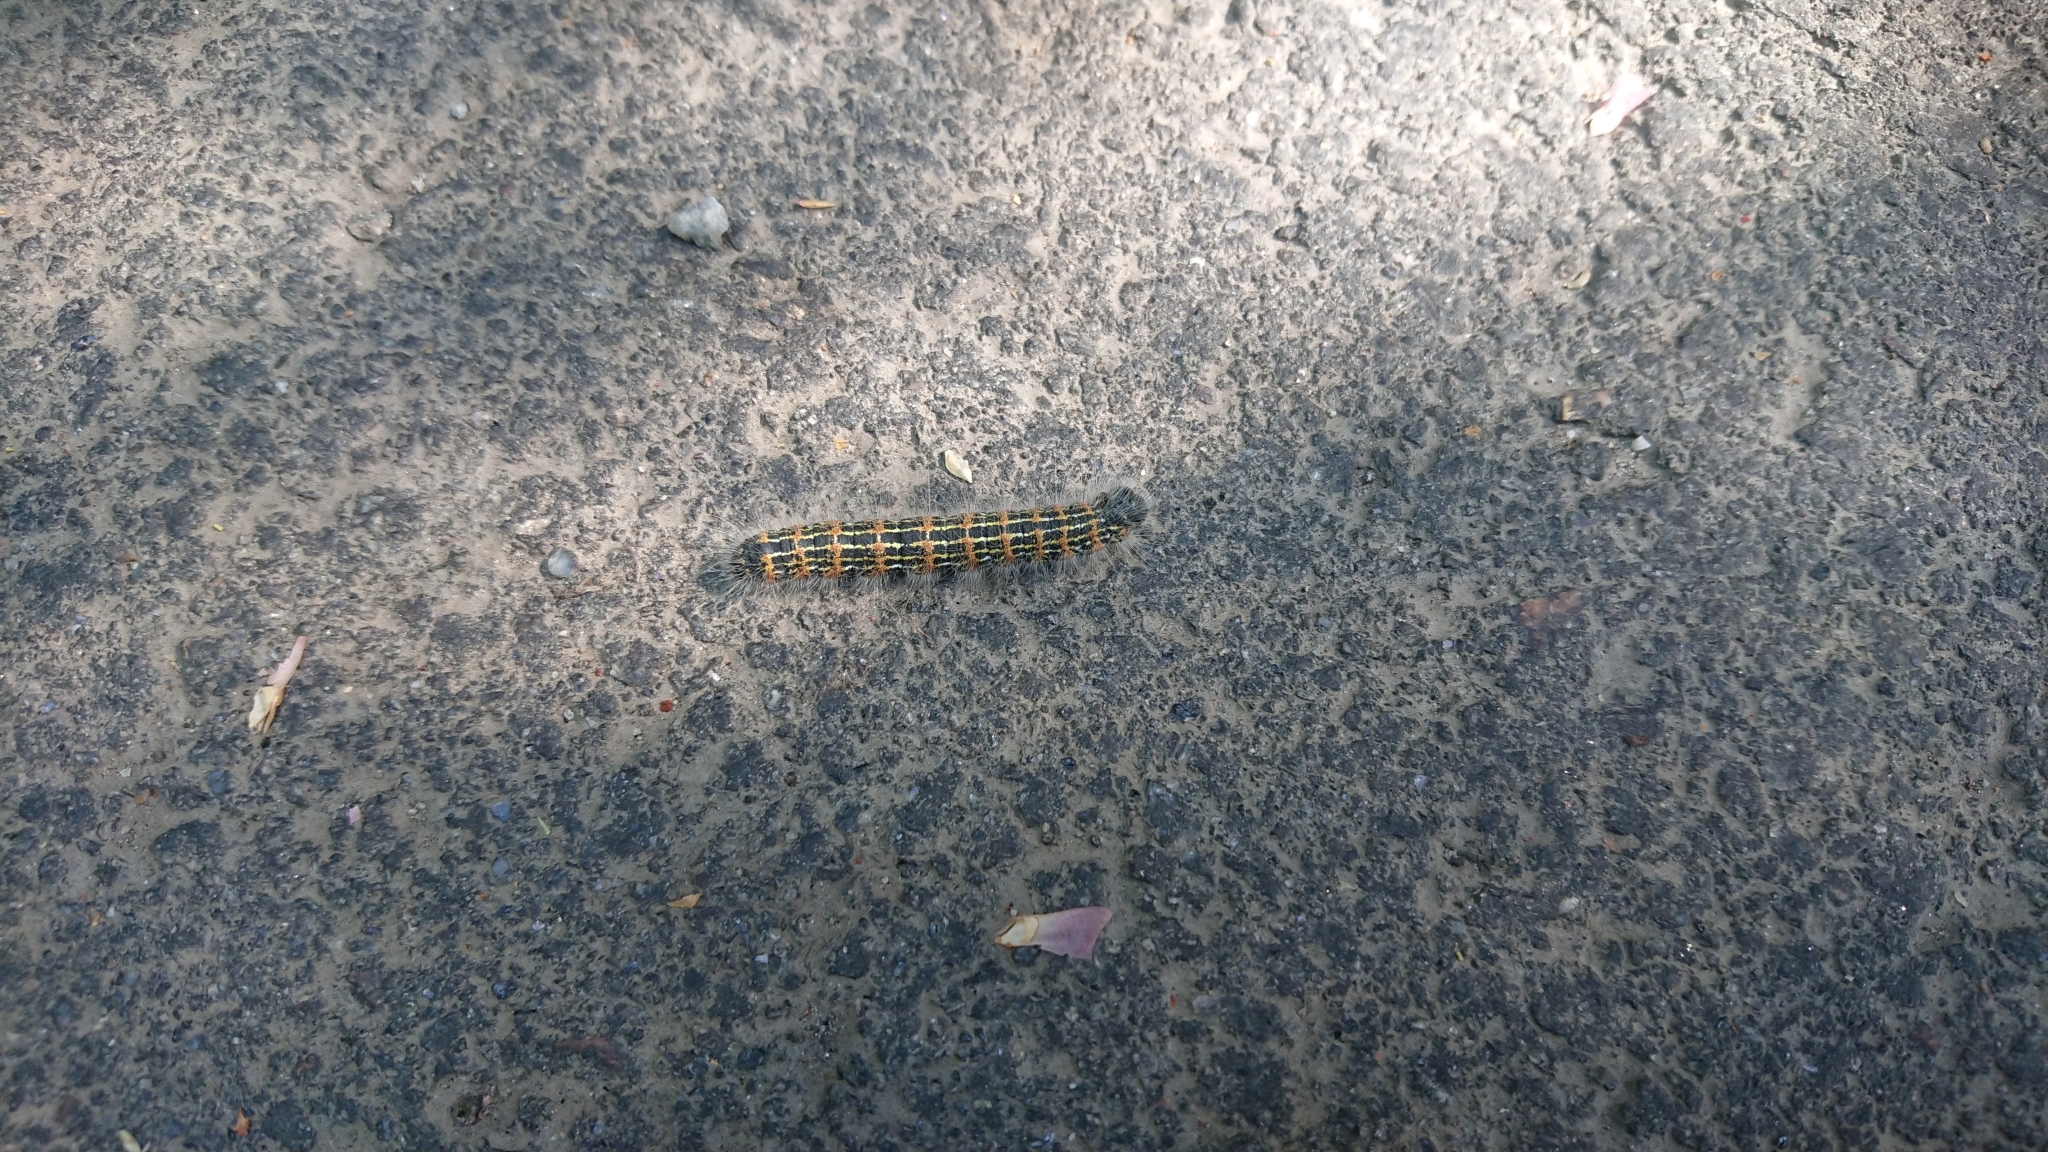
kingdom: Animalia
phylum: Arthropoda
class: Insecta
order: Lepidoptera
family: Notodontidae
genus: Phalera
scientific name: Phalera bucephala
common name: Buff-tip
